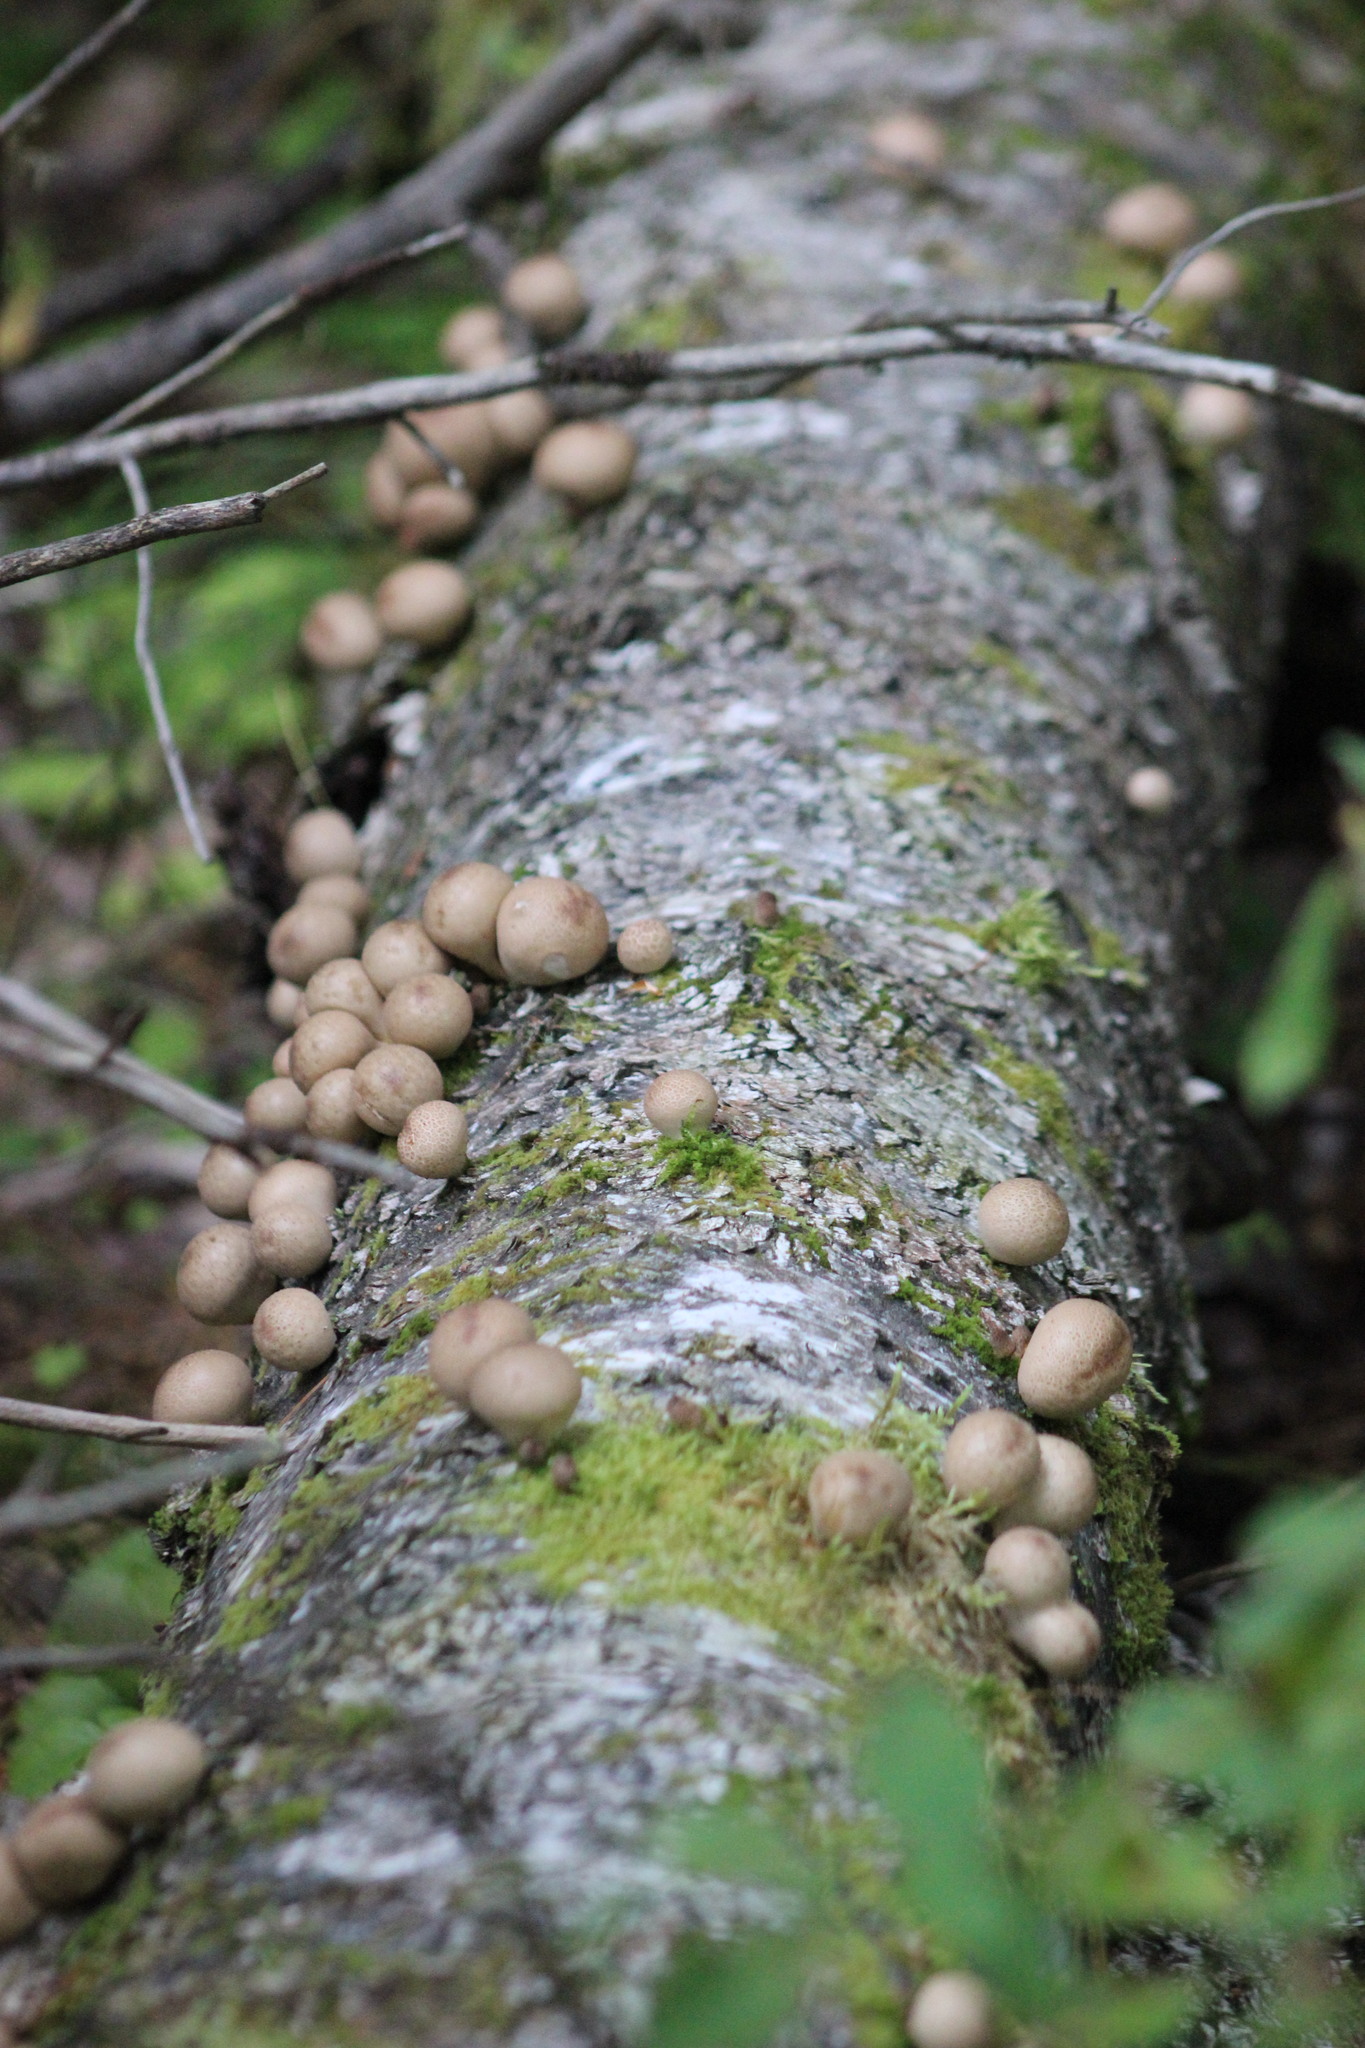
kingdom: Protozoa
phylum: Mycetozoa
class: Myxomycetes
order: Cribrariales
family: Tubiferaceae
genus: Lycogala
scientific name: Lycogala epidendrum
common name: Wolf's milk
